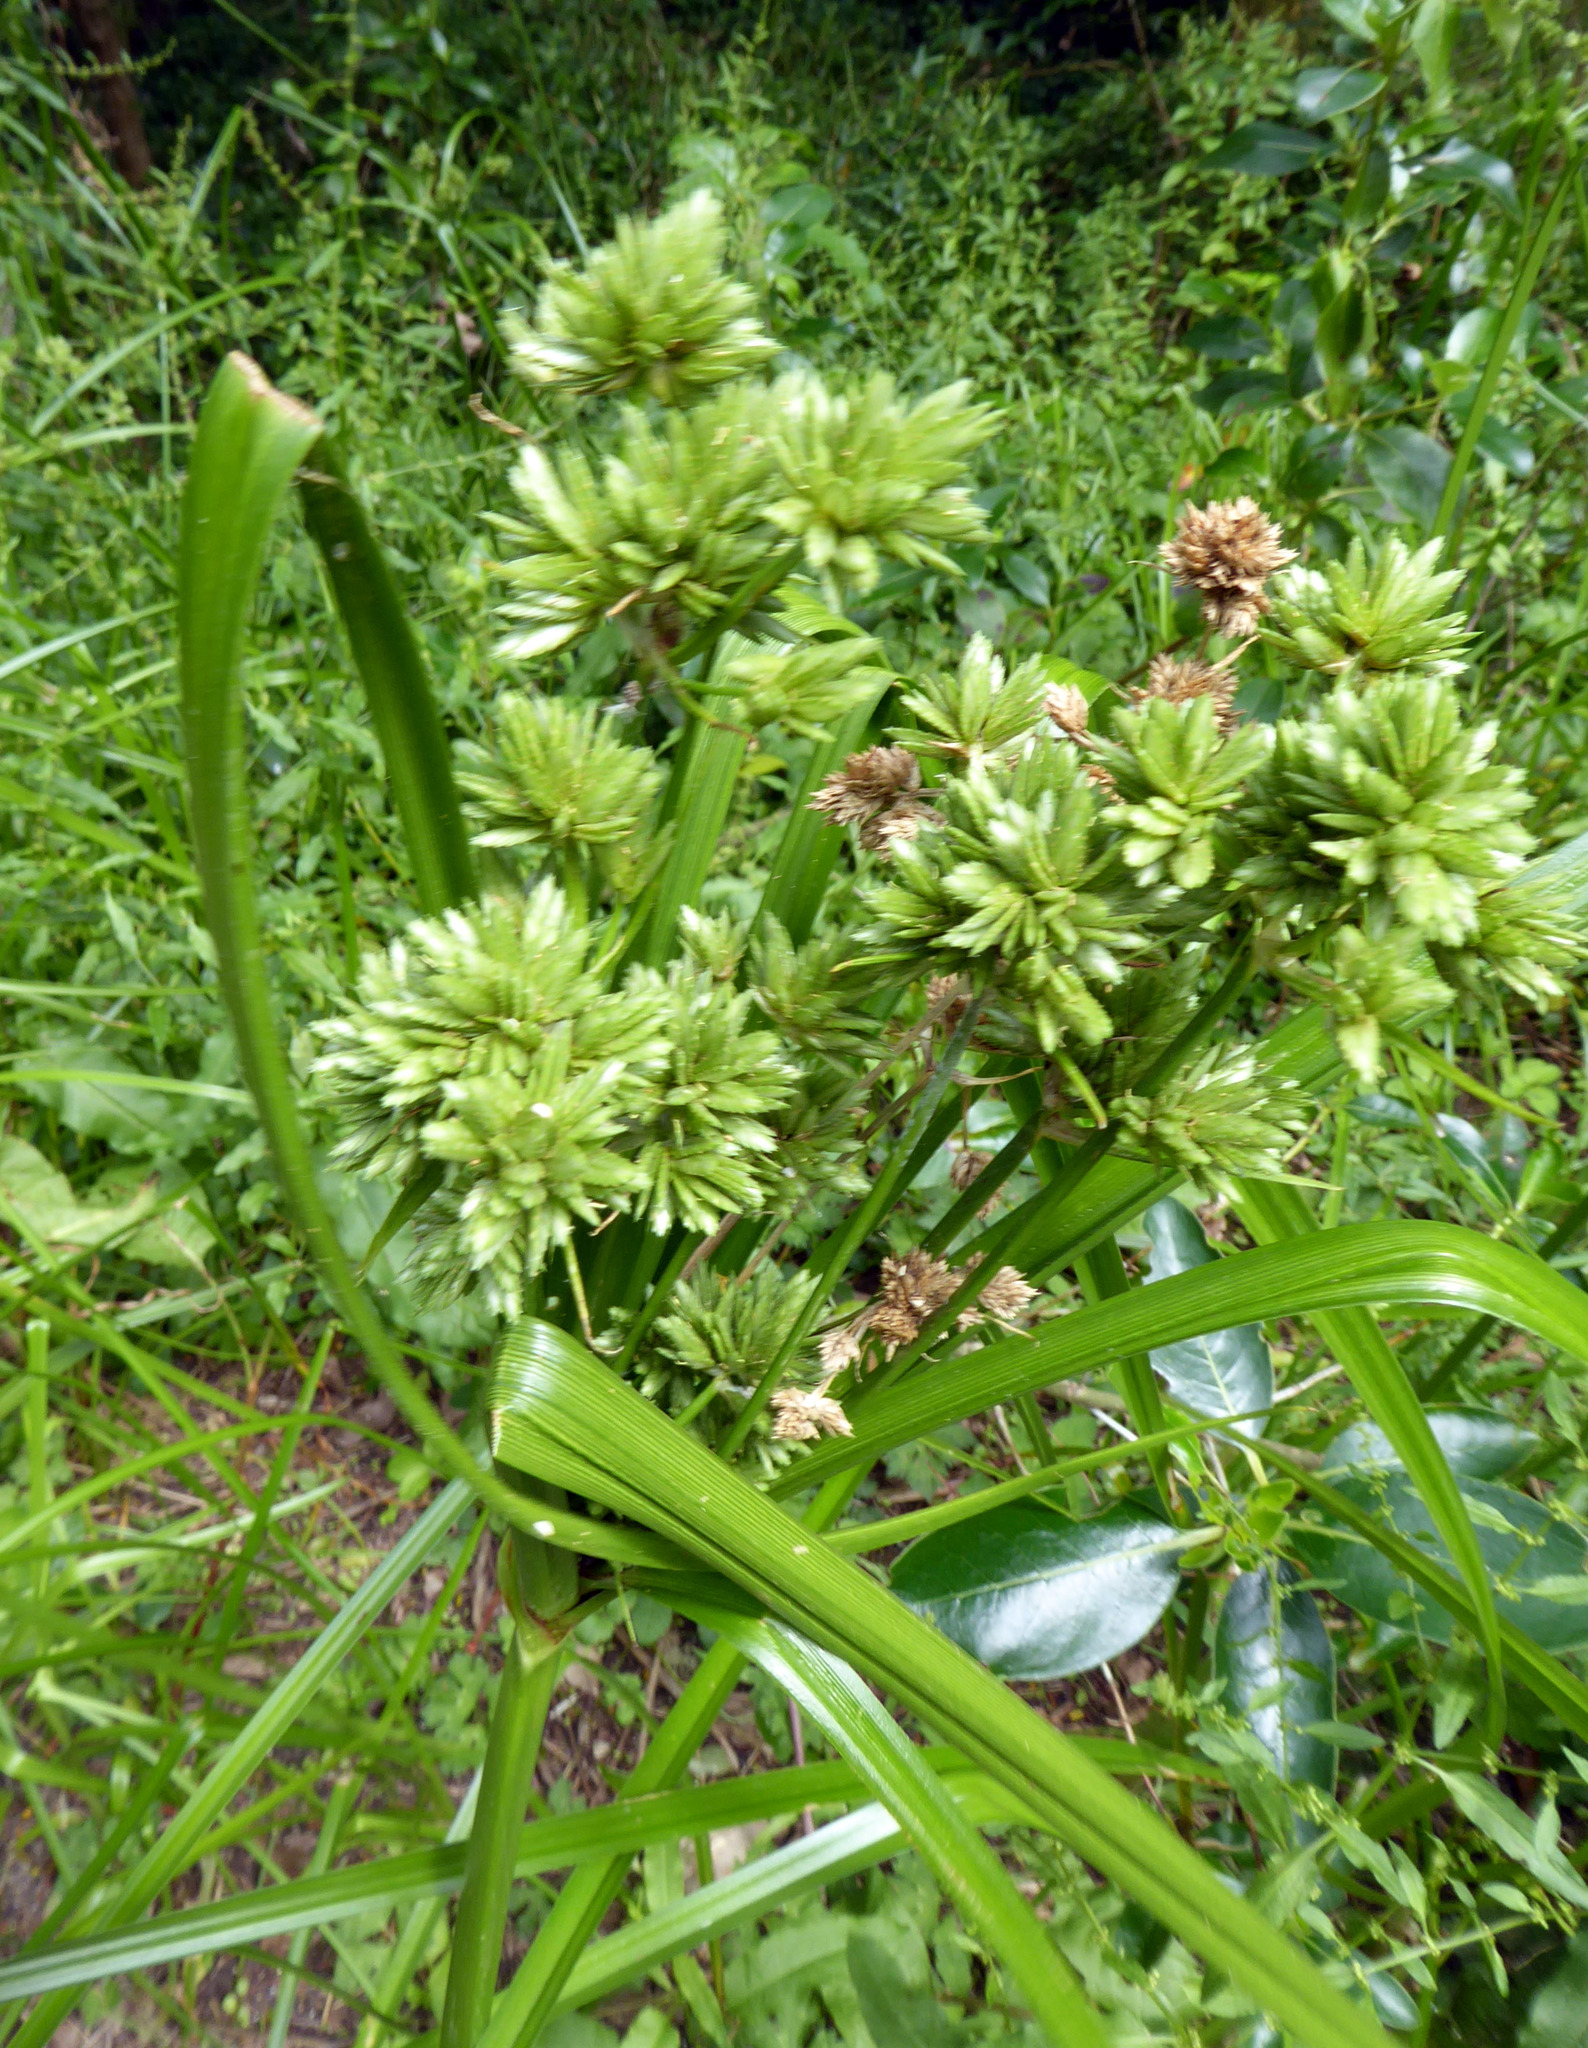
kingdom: Plantae
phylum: Tracheophyta
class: Liliopsida
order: Poales
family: Cyperaceae
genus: Cyperus
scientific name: Cyperus eragrostis
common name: Tall flatsedge
